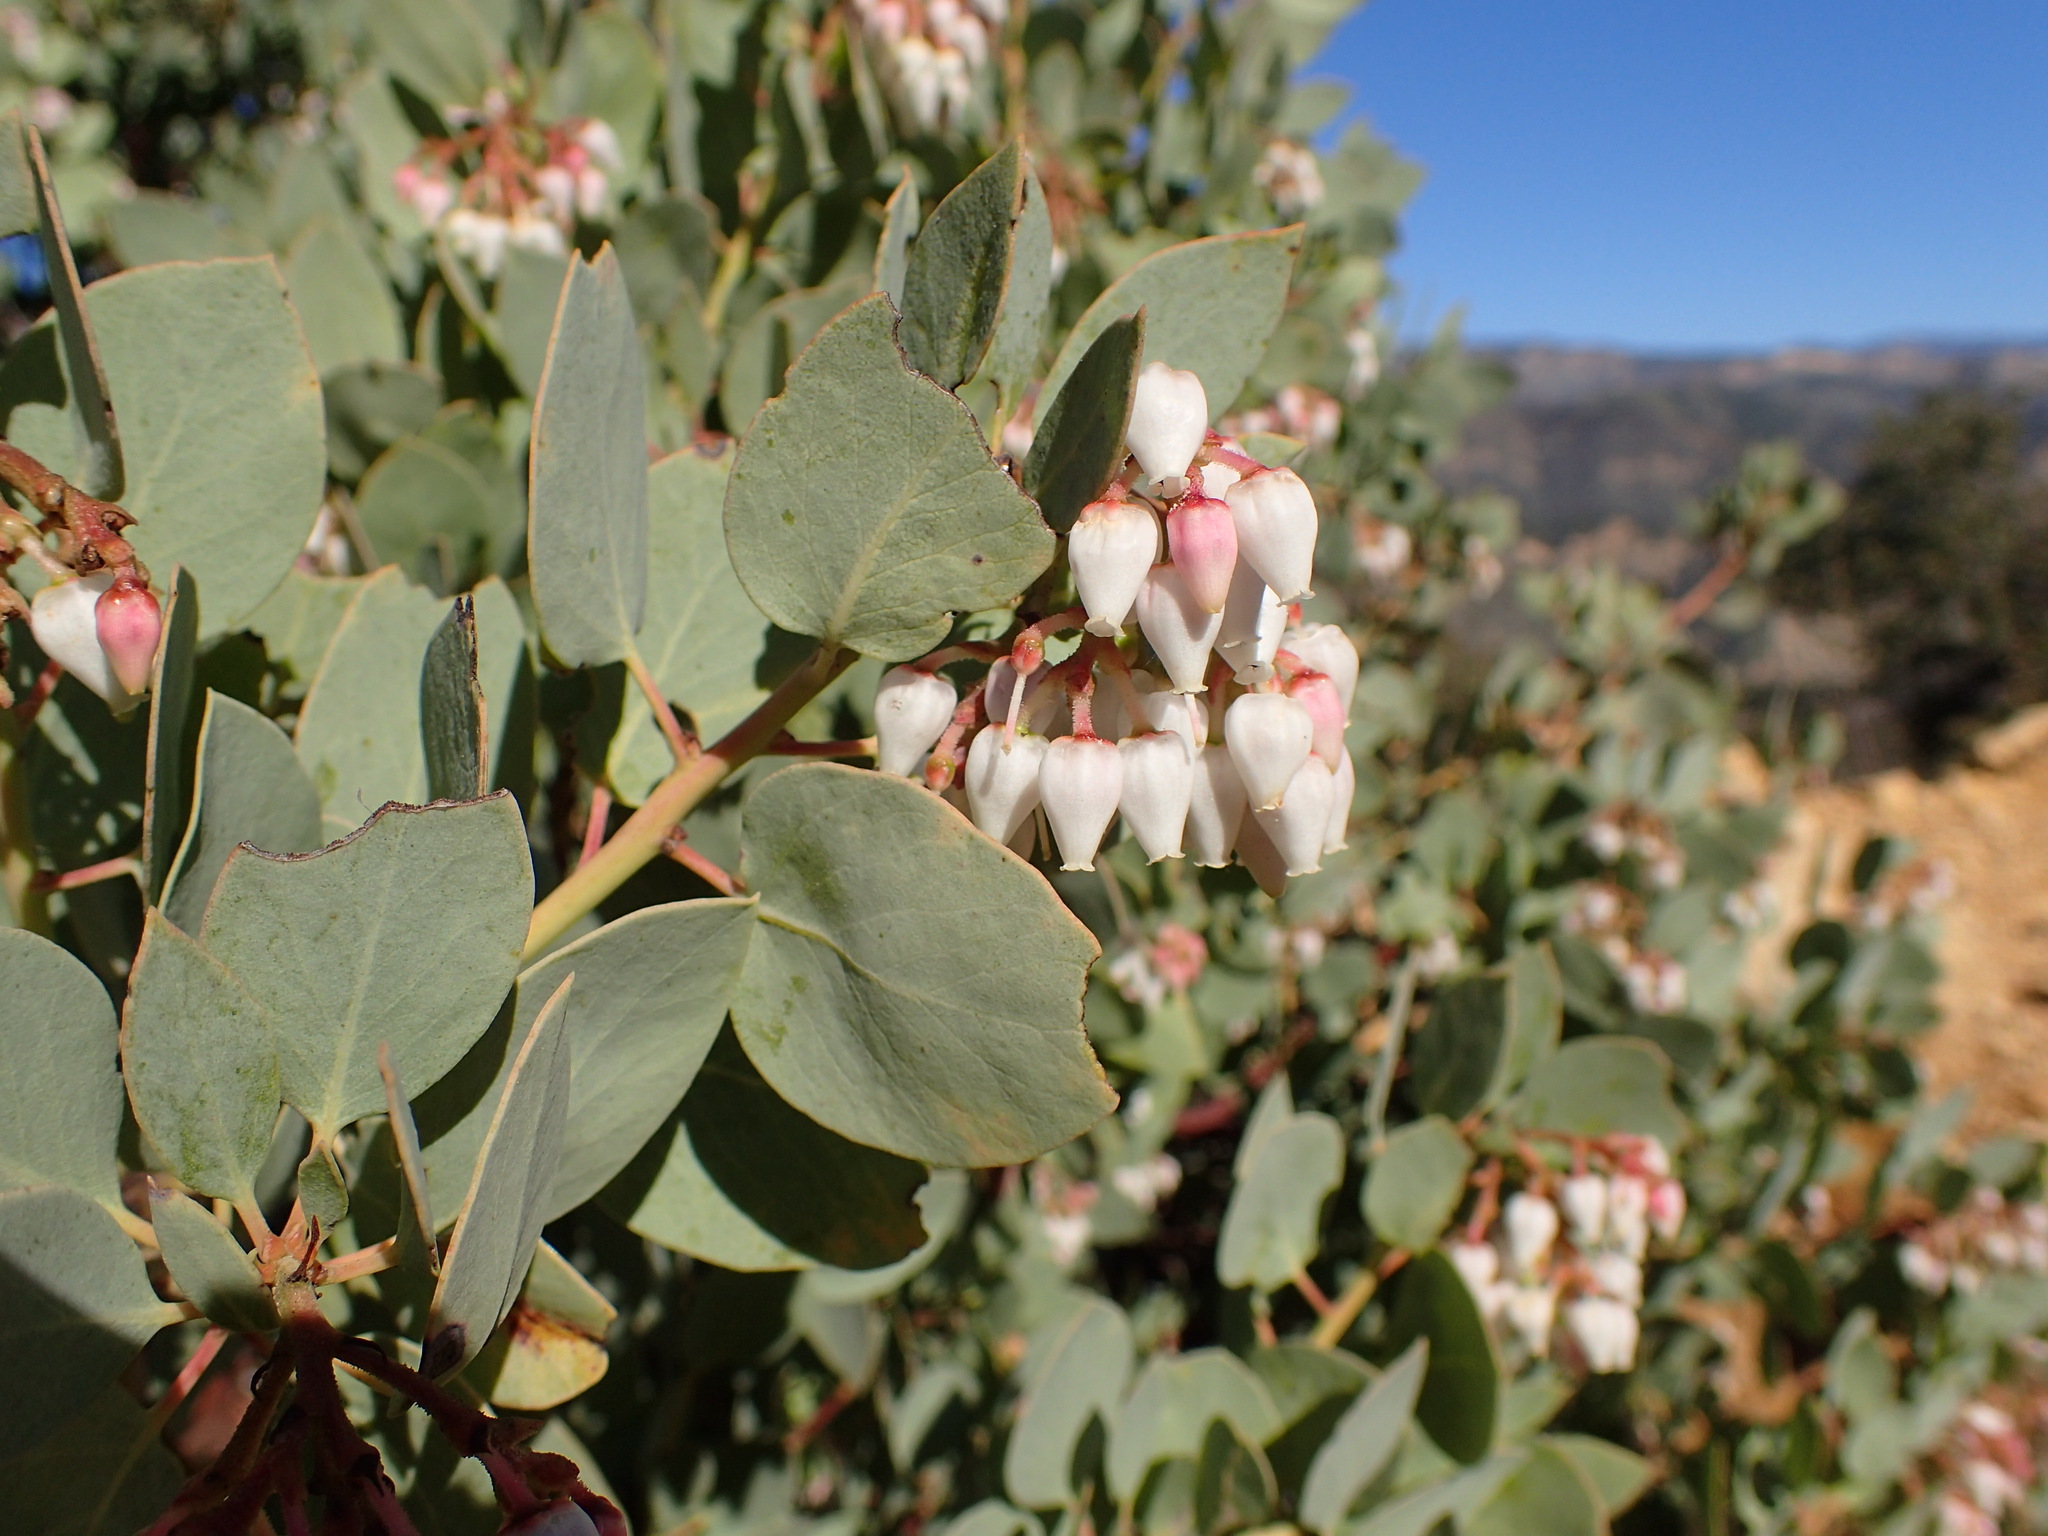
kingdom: Plantae
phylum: Tracheophyta
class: Magnoliopsida
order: Ericales
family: Ericaceae
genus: Arctostaphylos
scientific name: Arctostaphylos glauca
